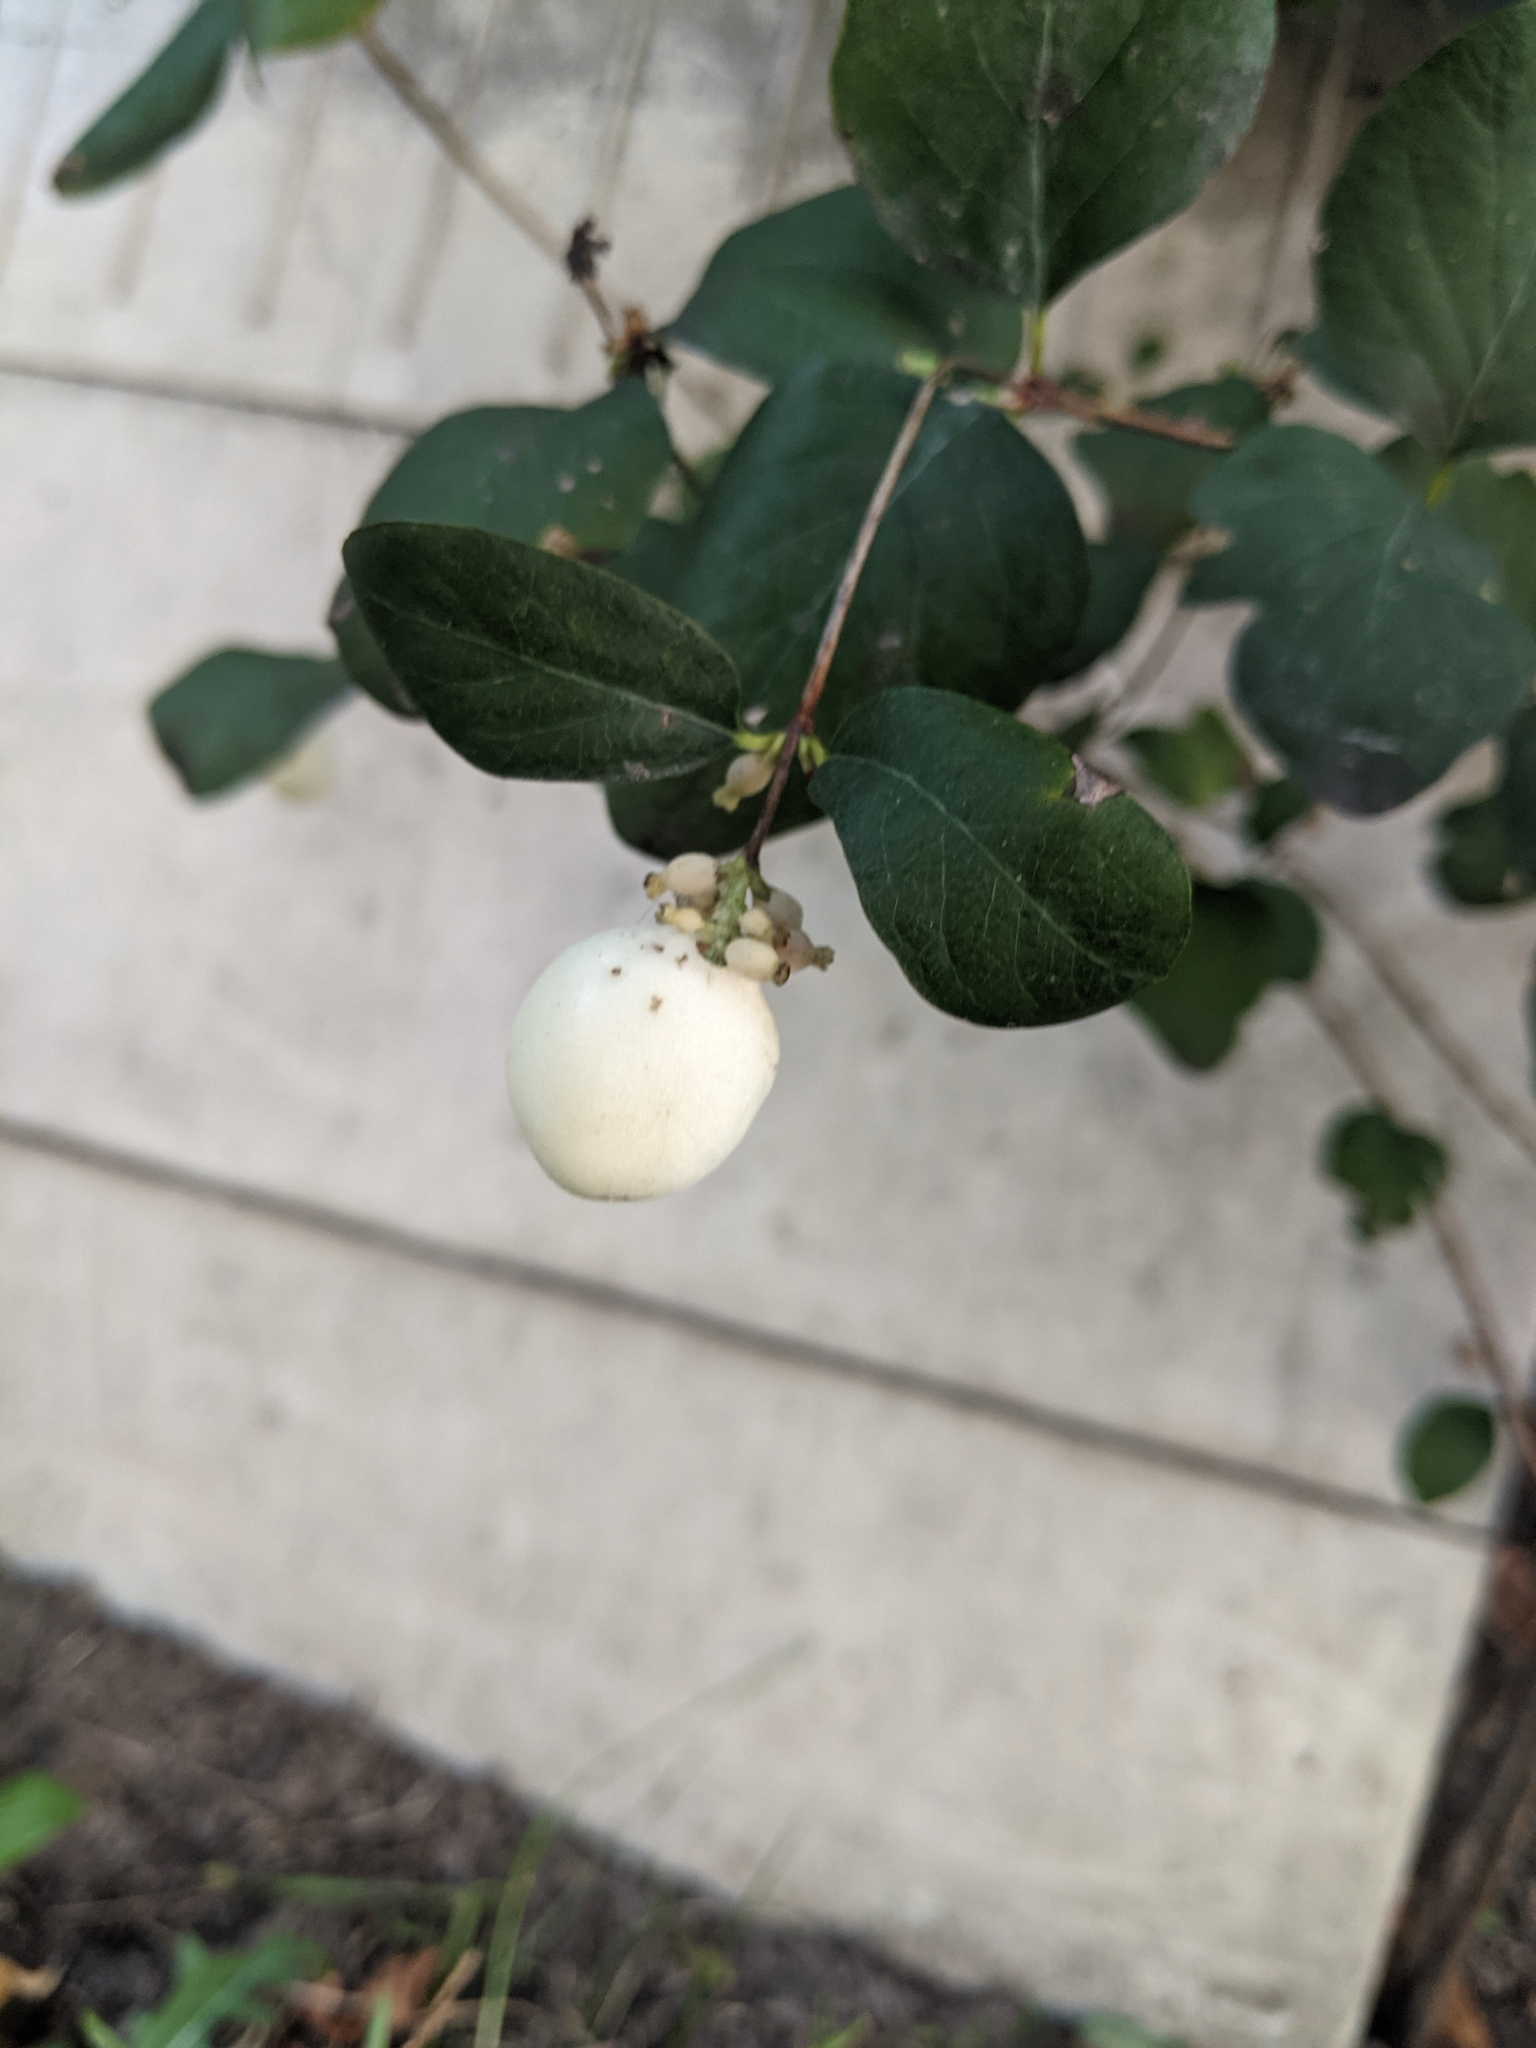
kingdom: Plantae
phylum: Tracheophyta
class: Magnoliopsida
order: Dipsacales
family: Caprifoliaceae
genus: Symphoricarpos
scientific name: Symphoricarpos albus
